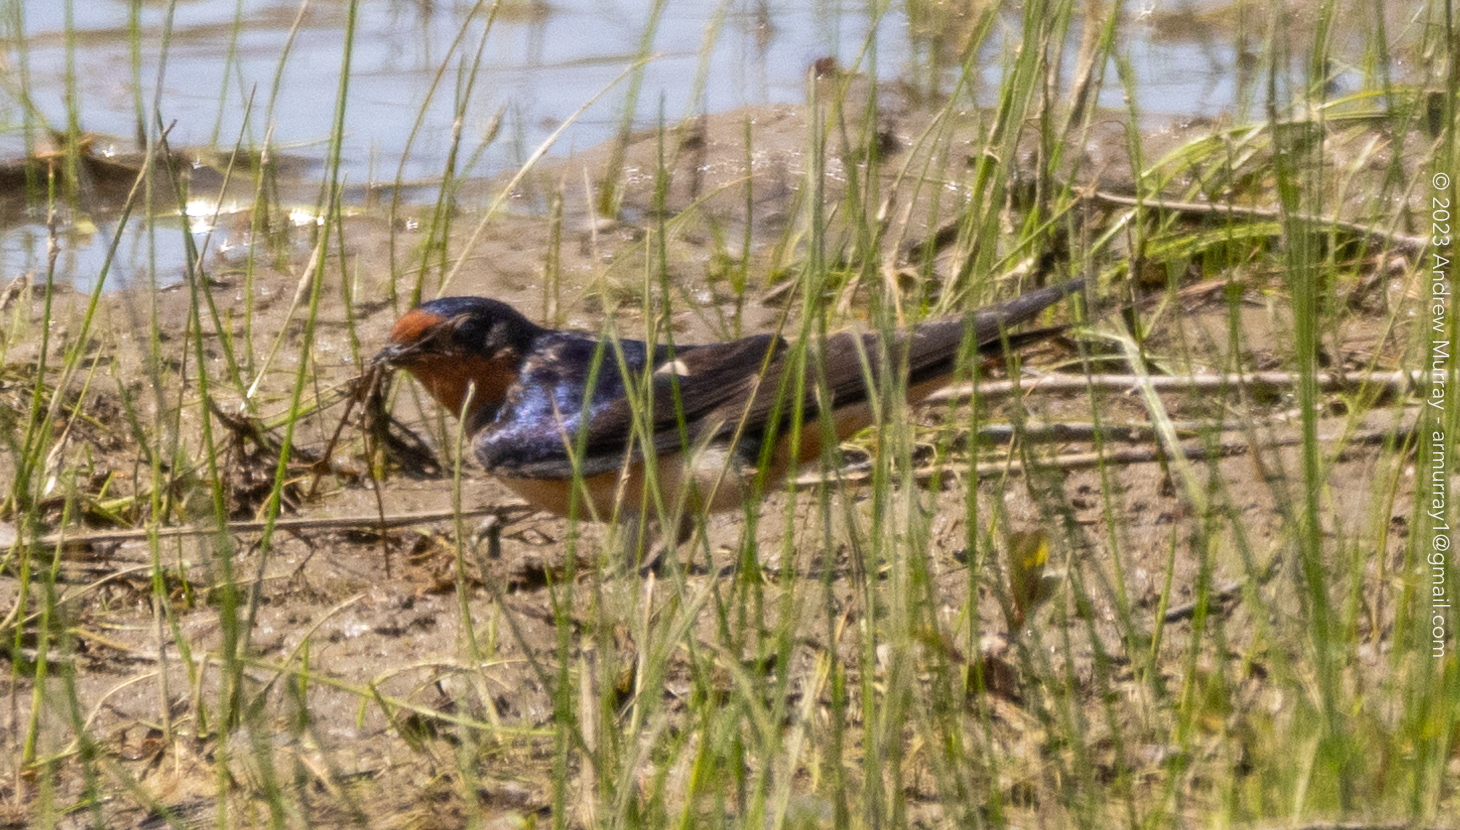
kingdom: Animalia
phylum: Chordata
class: Aves
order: Passeriformes
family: Hirundinidae
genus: Hirundo
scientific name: Hirundo rustica
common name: Barn swallow
